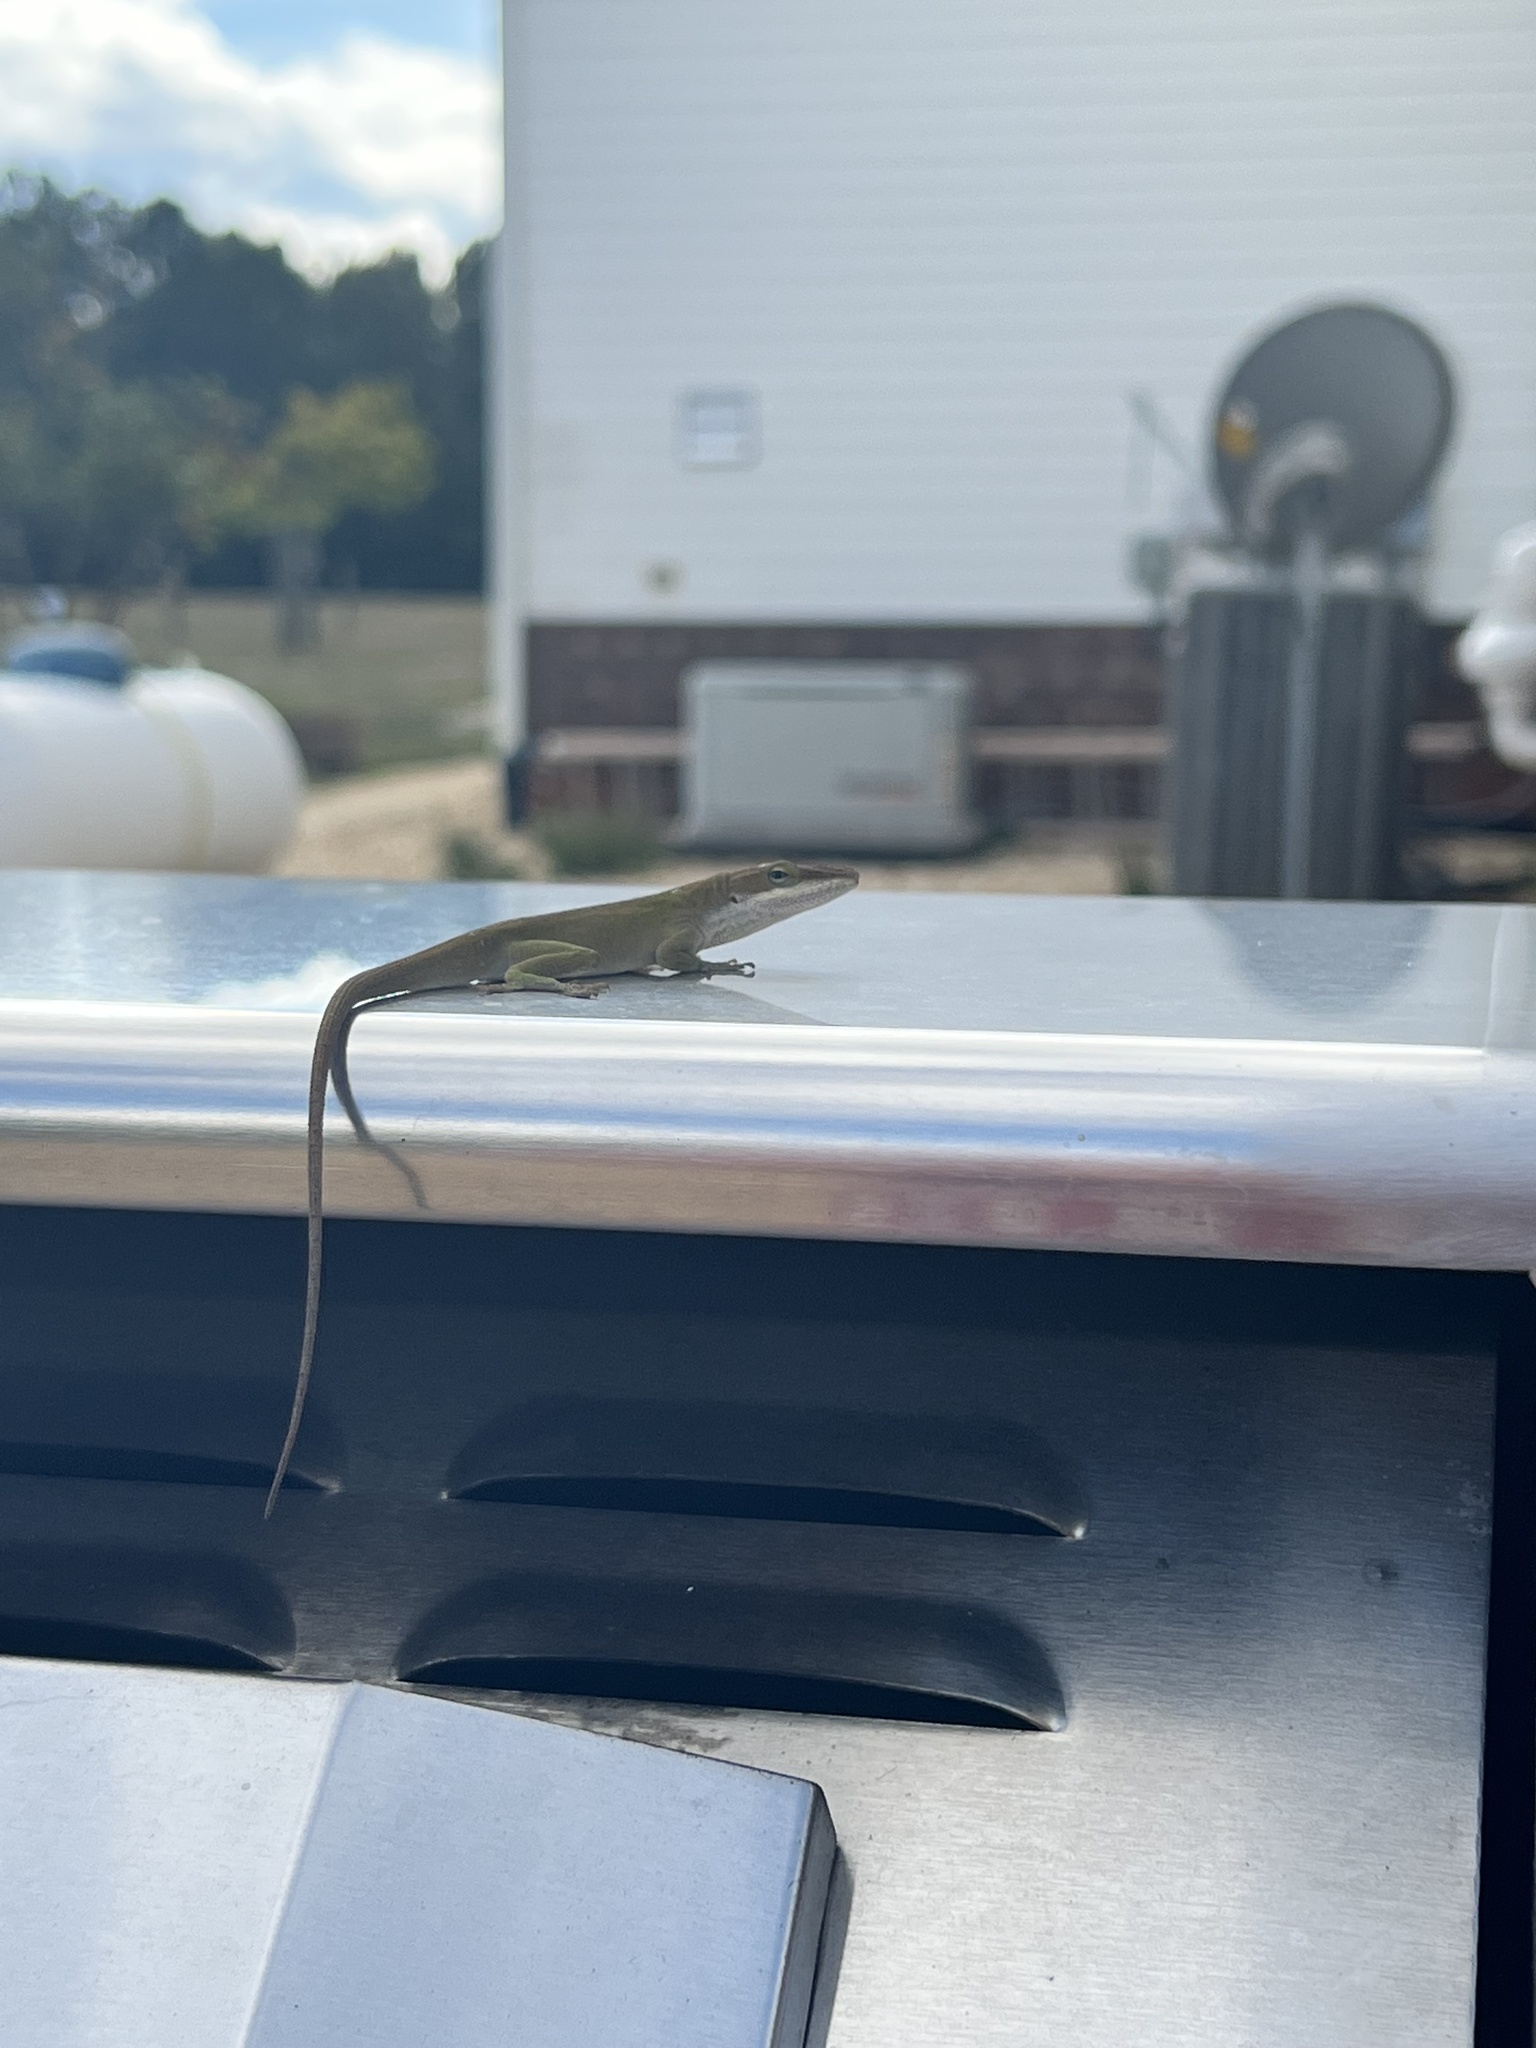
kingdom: Animalia
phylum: Chordata
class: Squamata
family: Dactyloidae
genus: Anolis
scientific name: Anolis carolinensis
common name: Green anole
